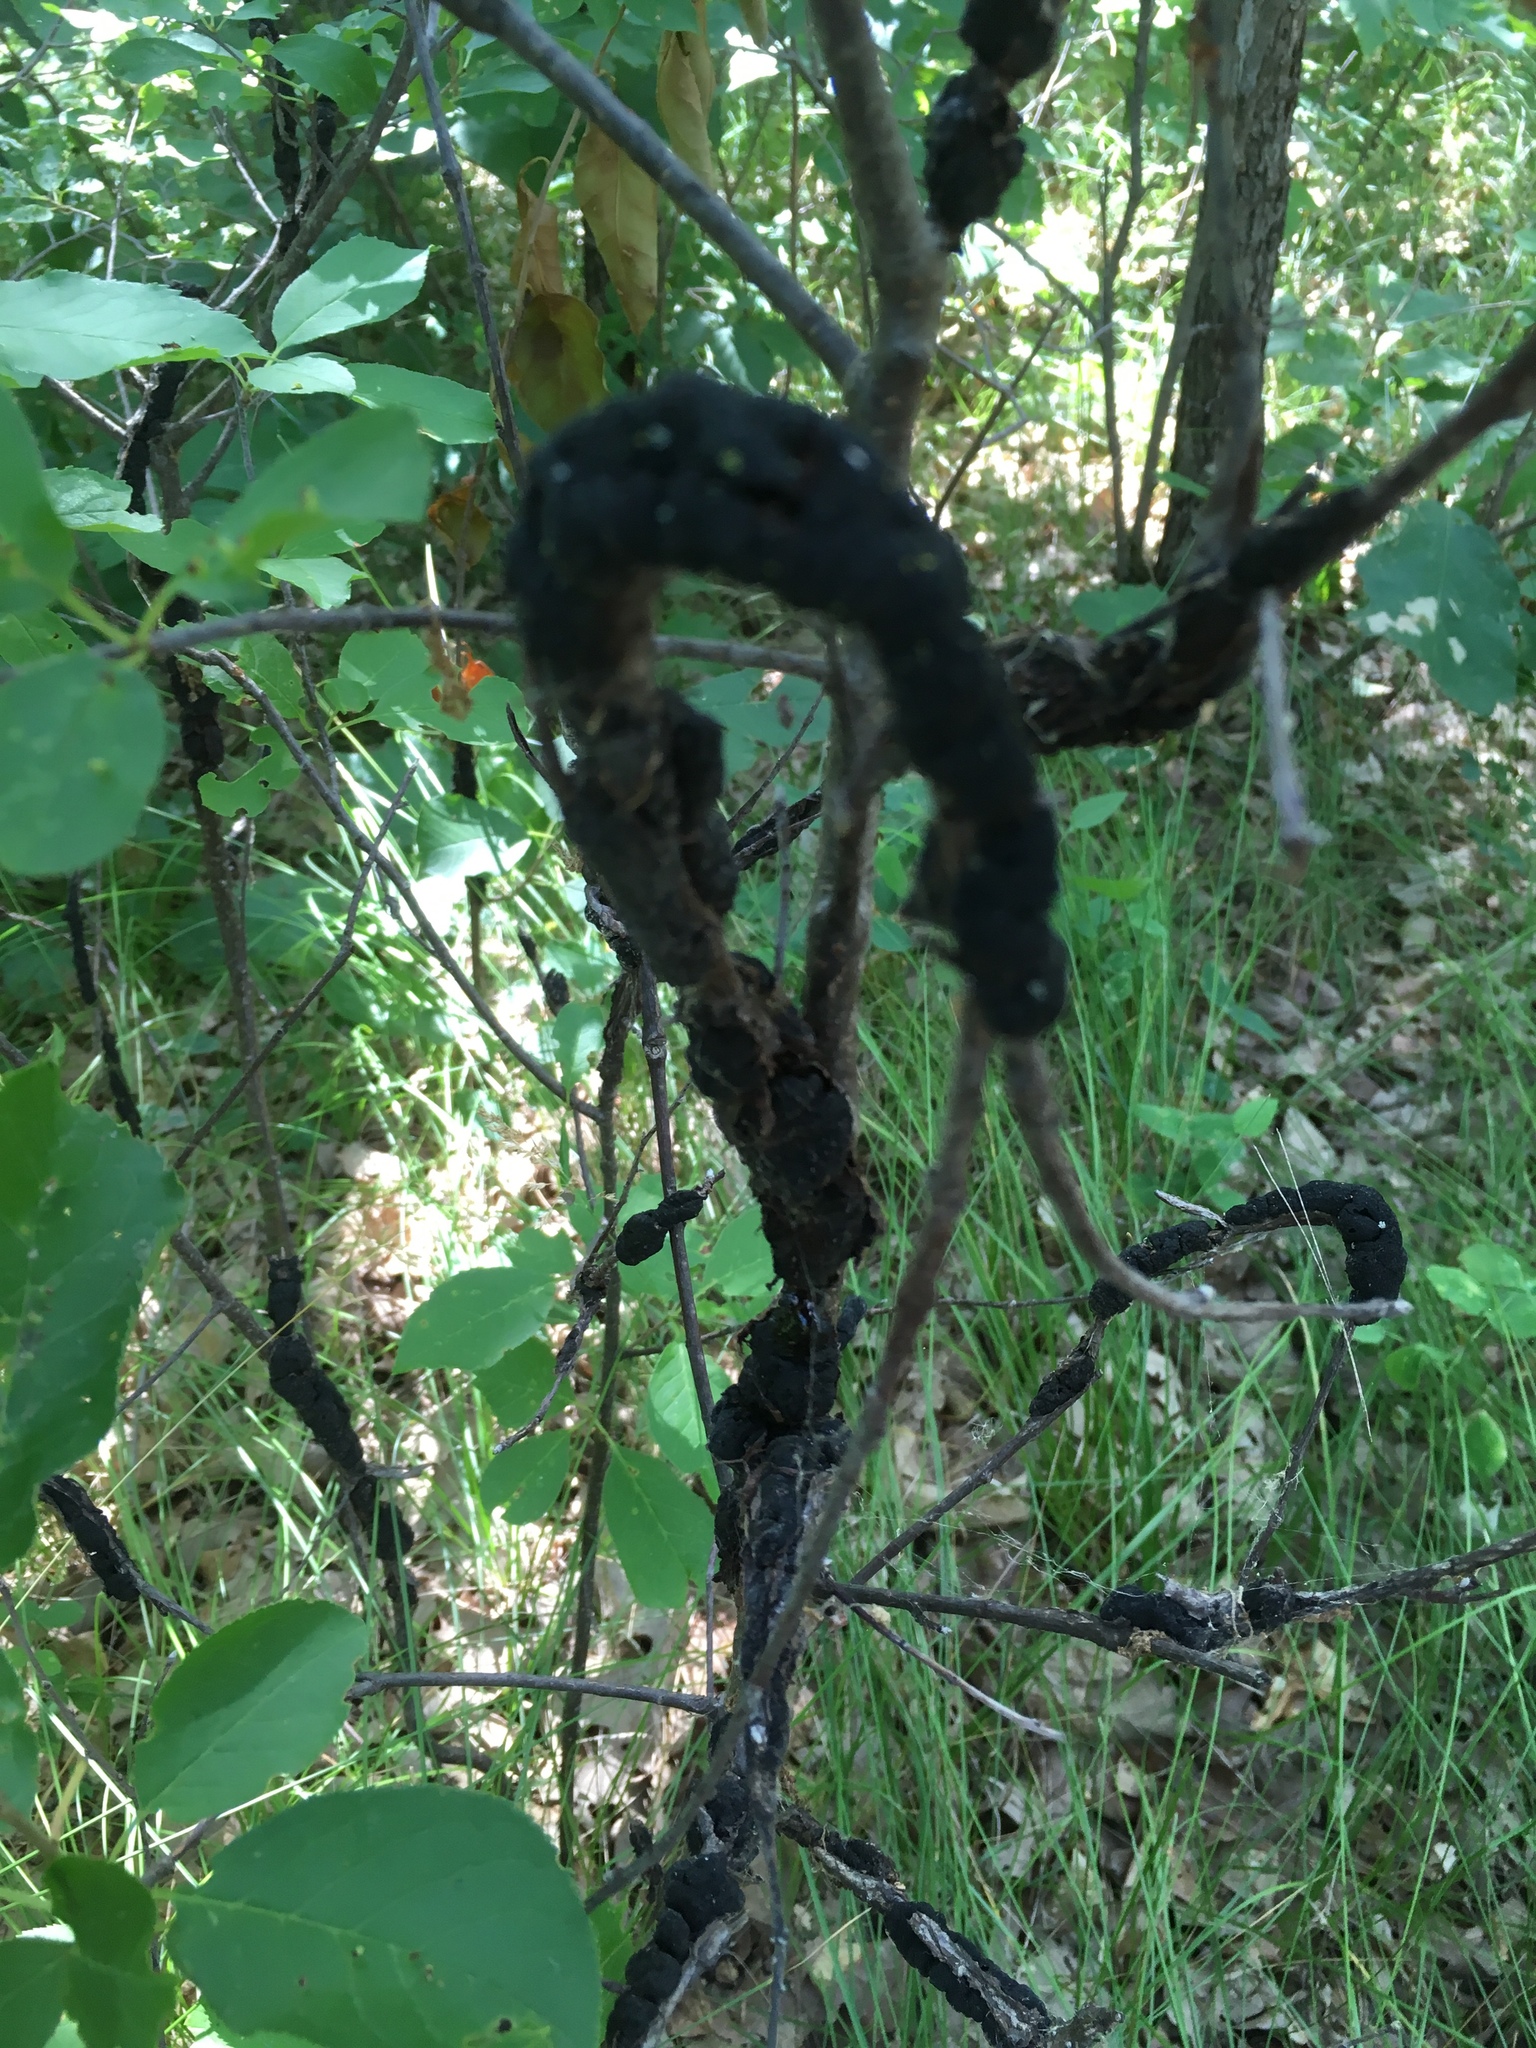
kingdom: Fungi
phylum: Ascomycota
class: Dothideomycetes
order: Venturiales
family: Venturiaceae
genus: Apiosporina
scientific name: Apiosporina morbosa
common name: Black knot
